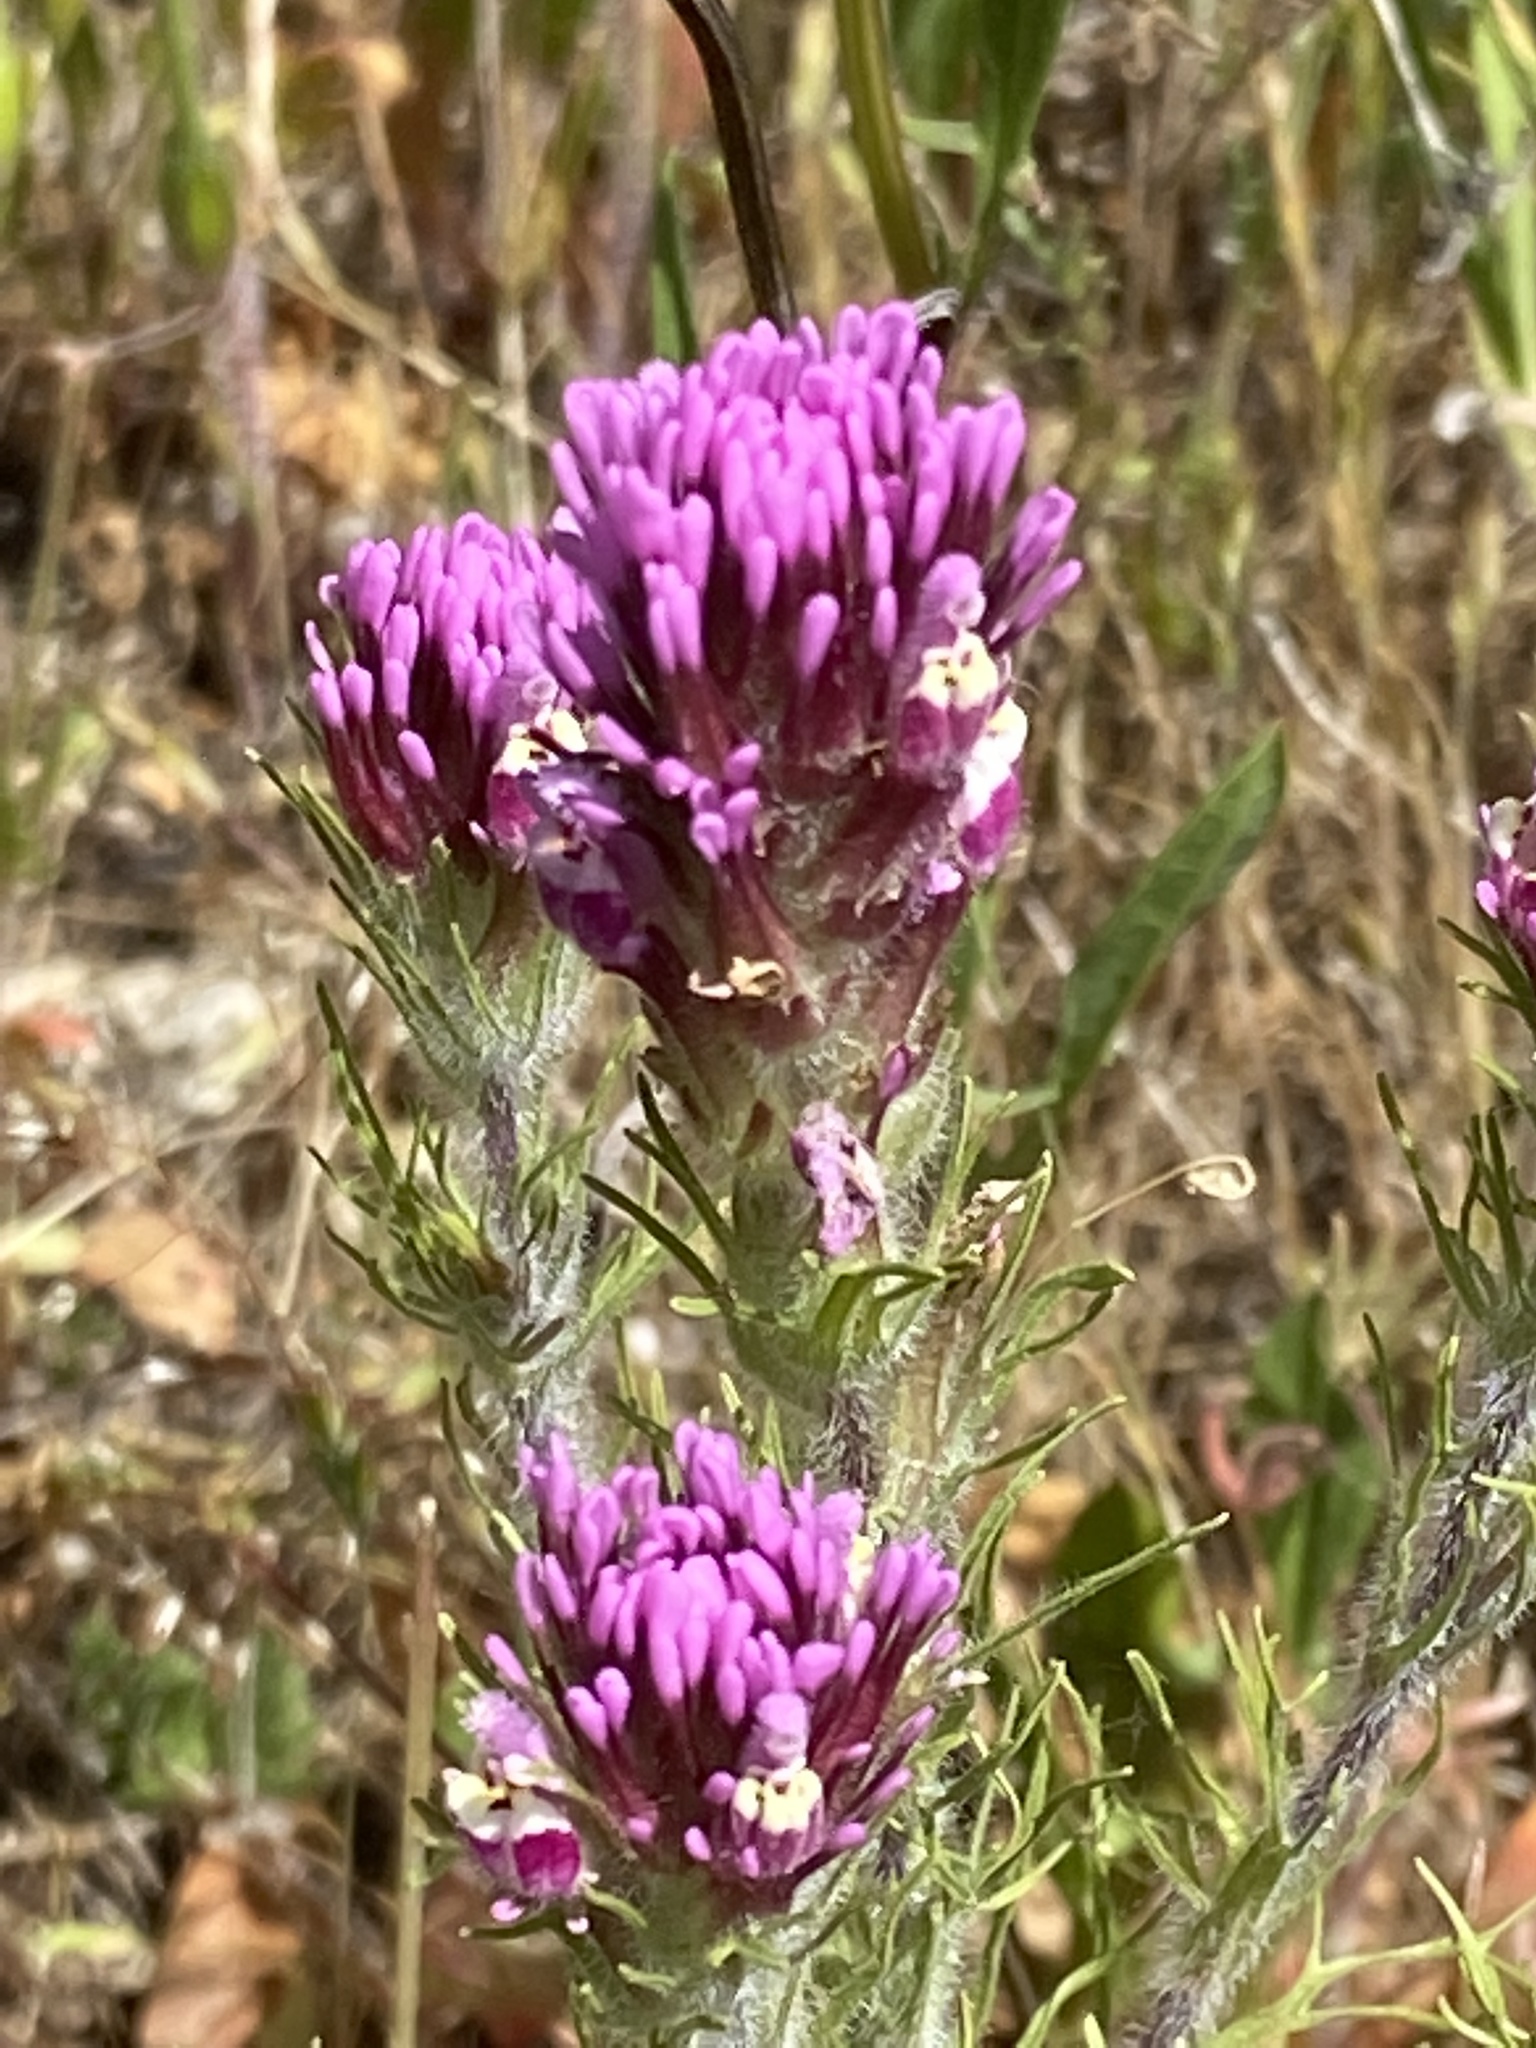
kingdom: Plantae
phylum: Tracheophyta
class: Magnoliopsida
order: Lamiales
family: Orobanchaceae
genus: Castilleja
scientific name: Castilleja exserta
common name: Purple owl-clover
